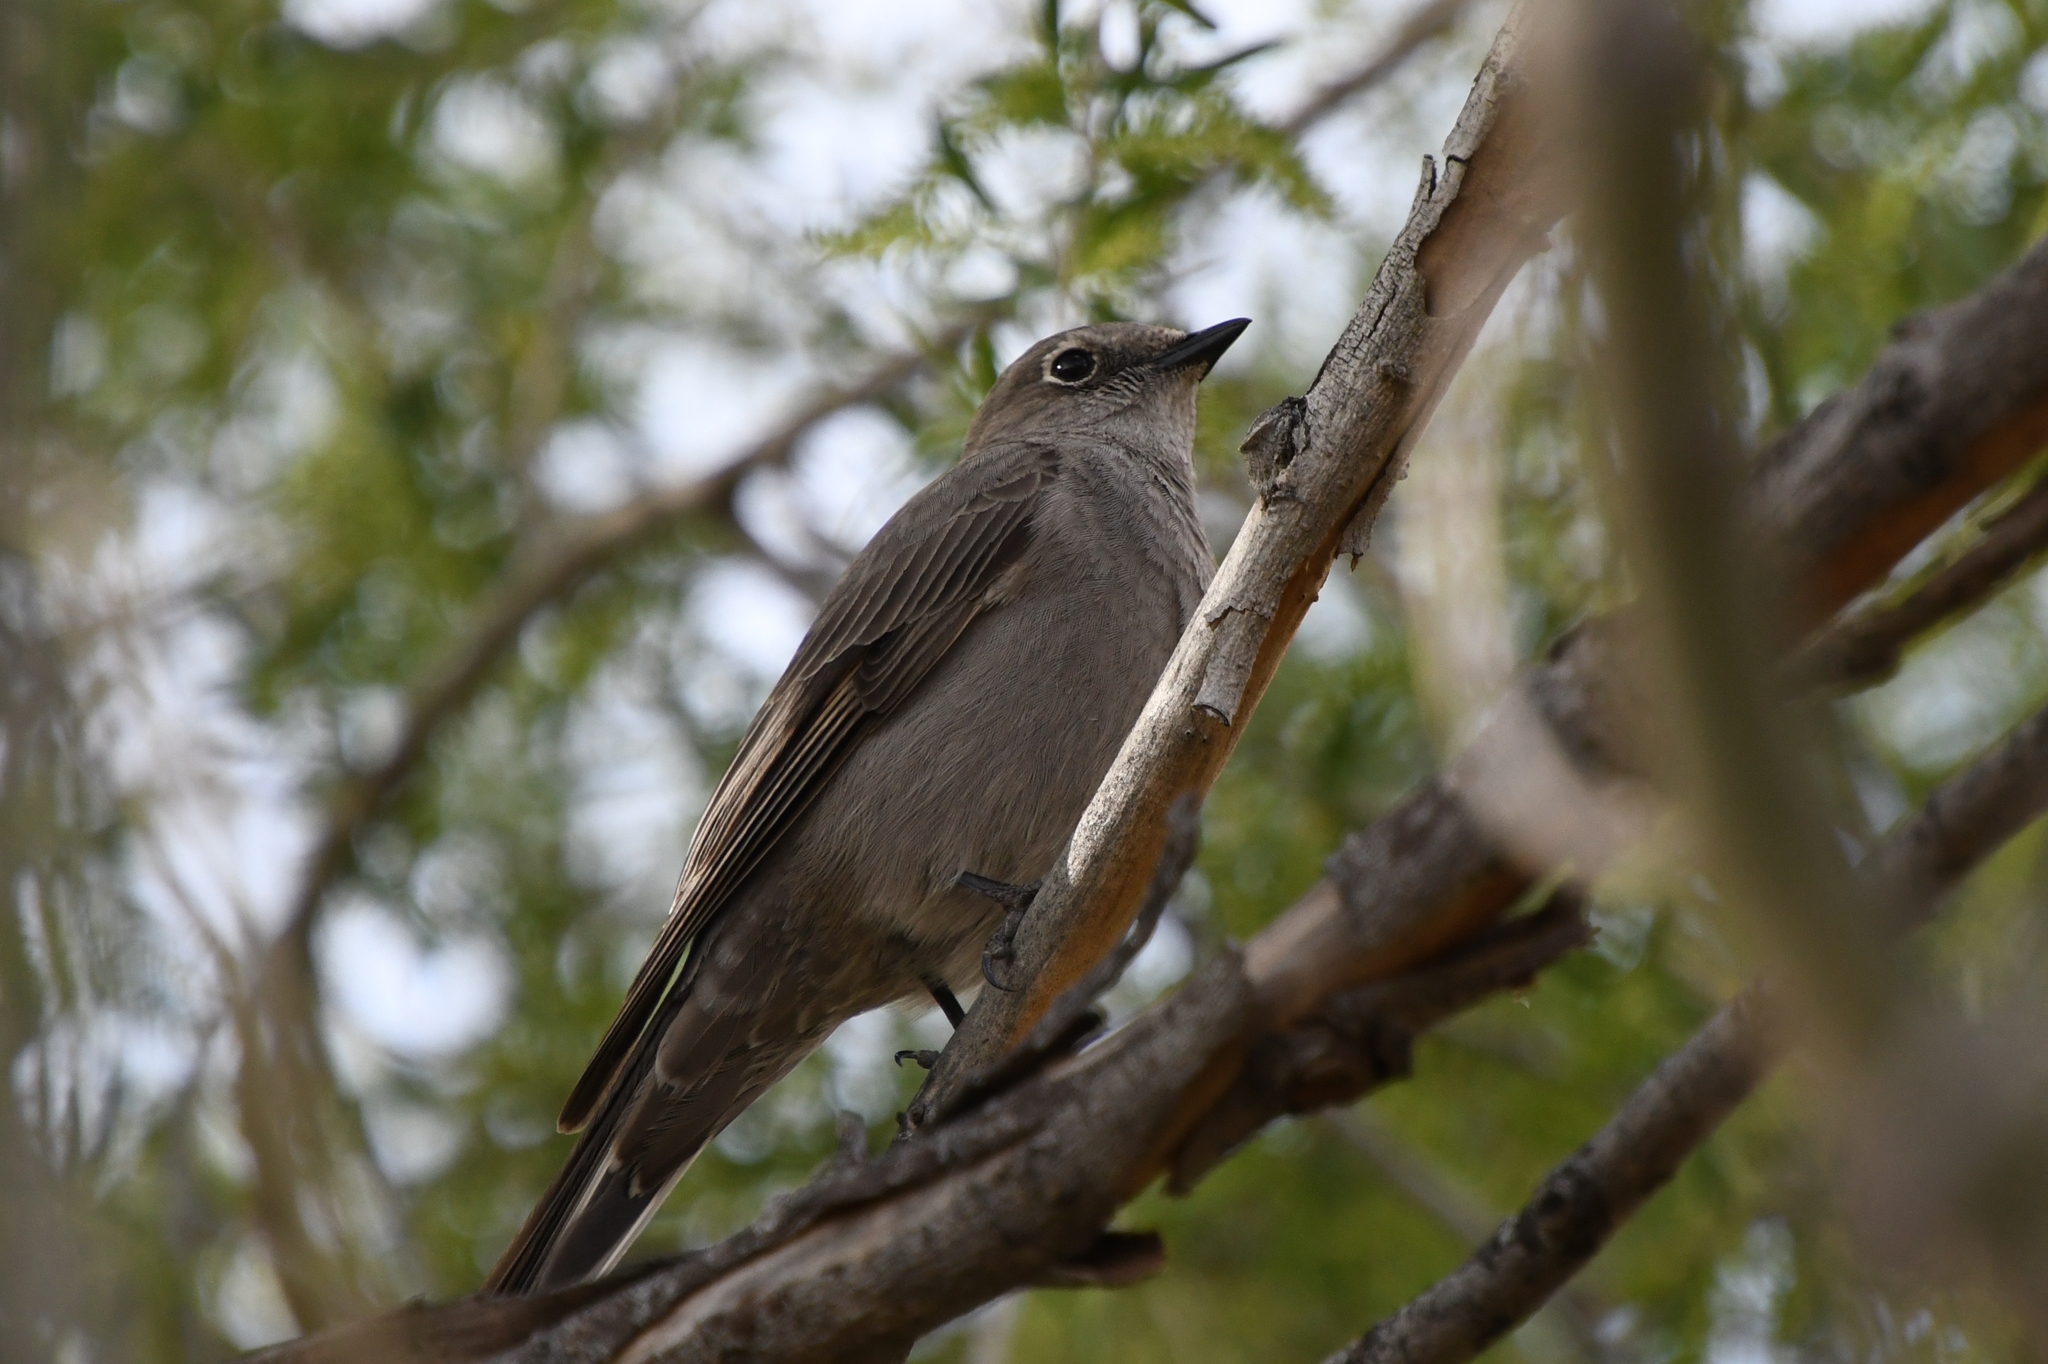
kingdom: Animalia
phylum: Chordata
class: Aves
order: Passeriformes
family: Turdidae
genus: Myadestes
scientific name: Myadestes townsendi
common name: Townsend's solitaire
